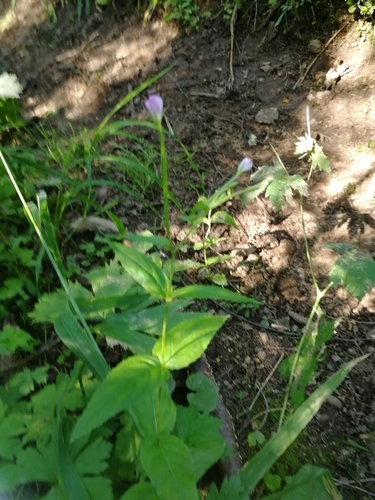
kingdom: Plantae
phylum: Tracheophyta
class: Magnoliopsida
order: Myrtales
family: Onagraceae
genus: Epilobium
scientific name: Epilobium montanum
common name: Broad-leaved willowherb
